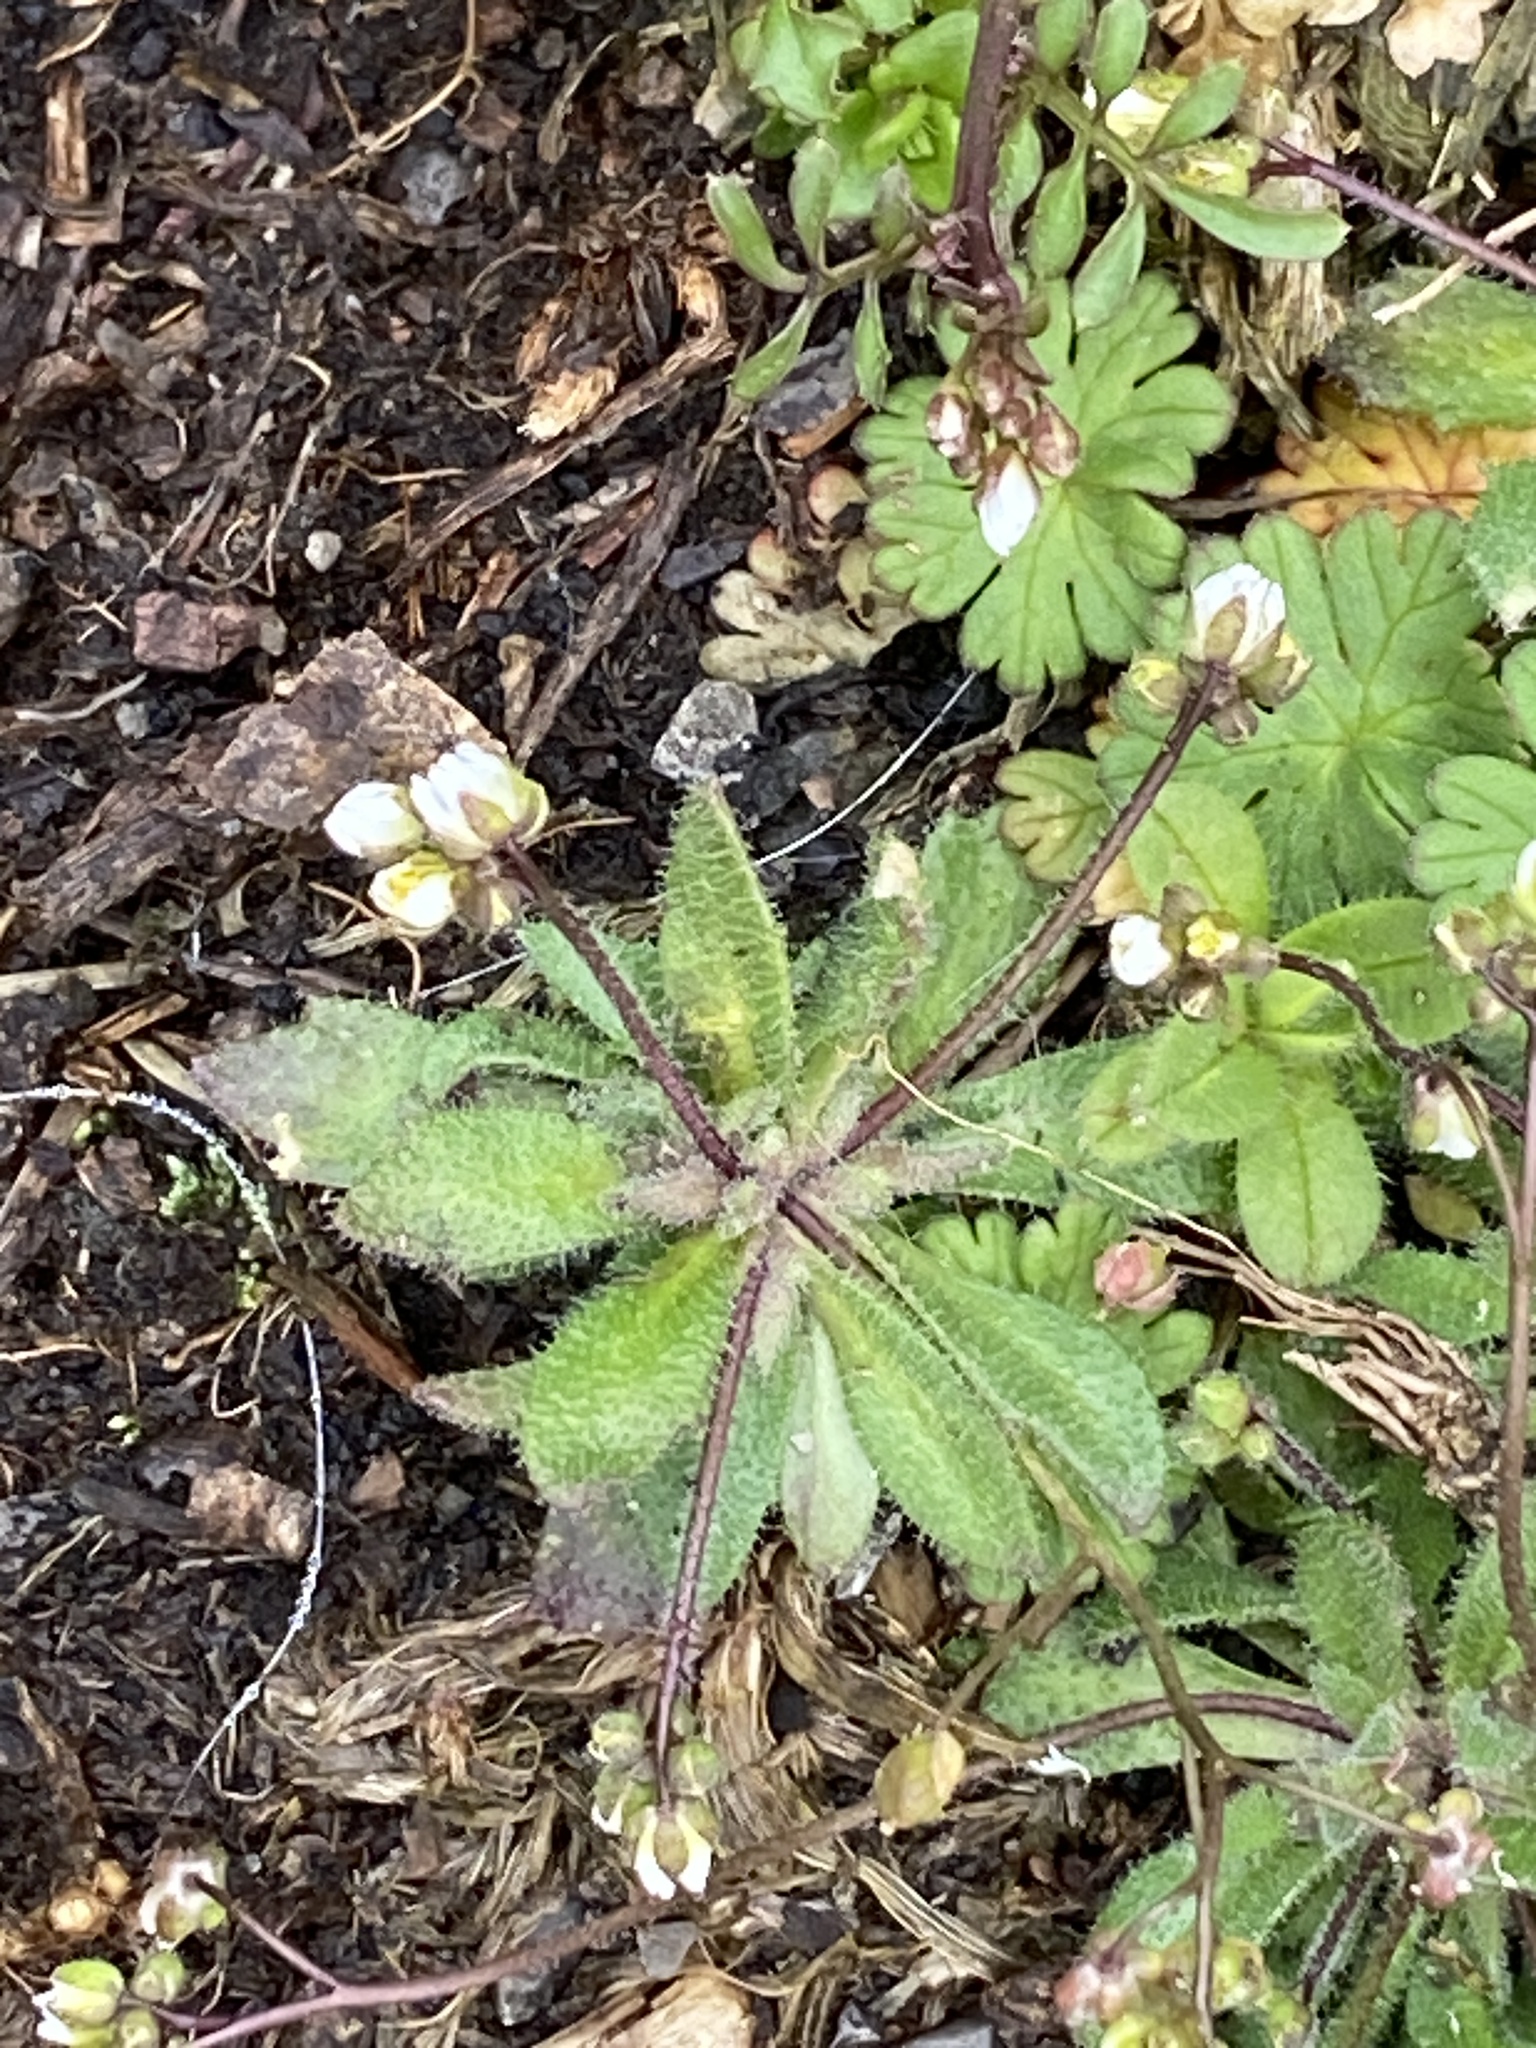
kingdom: Plantae
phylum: Tracheophyta
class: Magnoliopsida
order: Brassicales
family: Brassicaceae
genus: Draba
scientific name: Draba verna
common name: Spring draba
